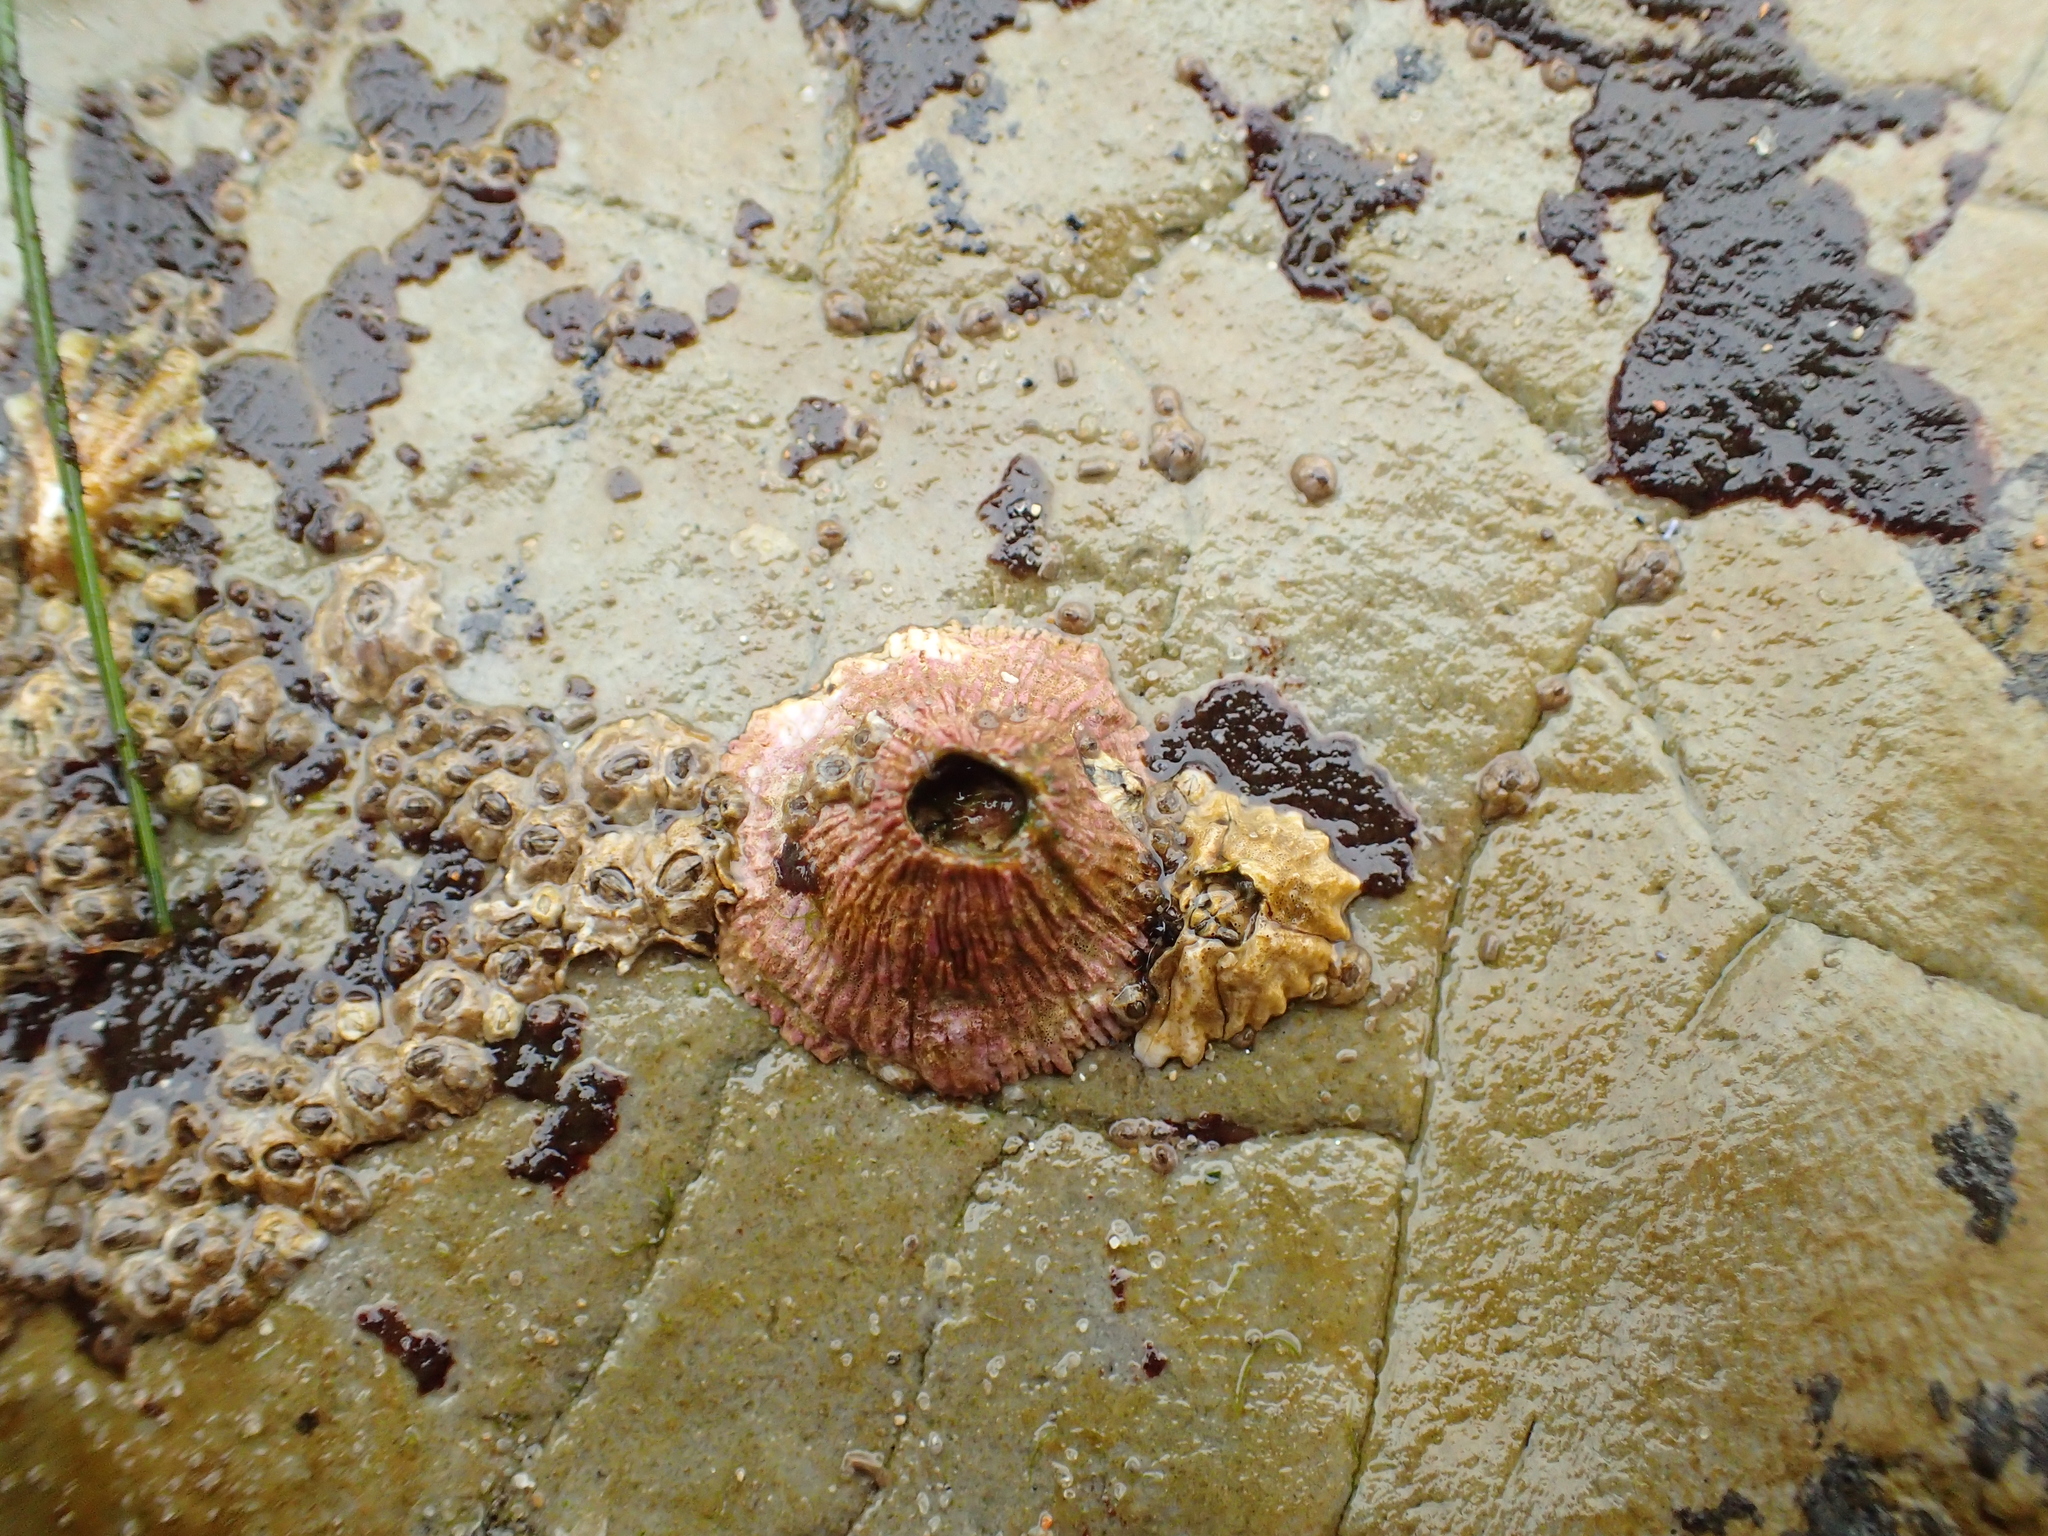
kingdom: Animalia
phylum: Arthropoda
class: Maxillopoda
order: Sessilia
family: Tetraclitidae
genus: Tetraclita
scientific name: Tetraclita rubescens
